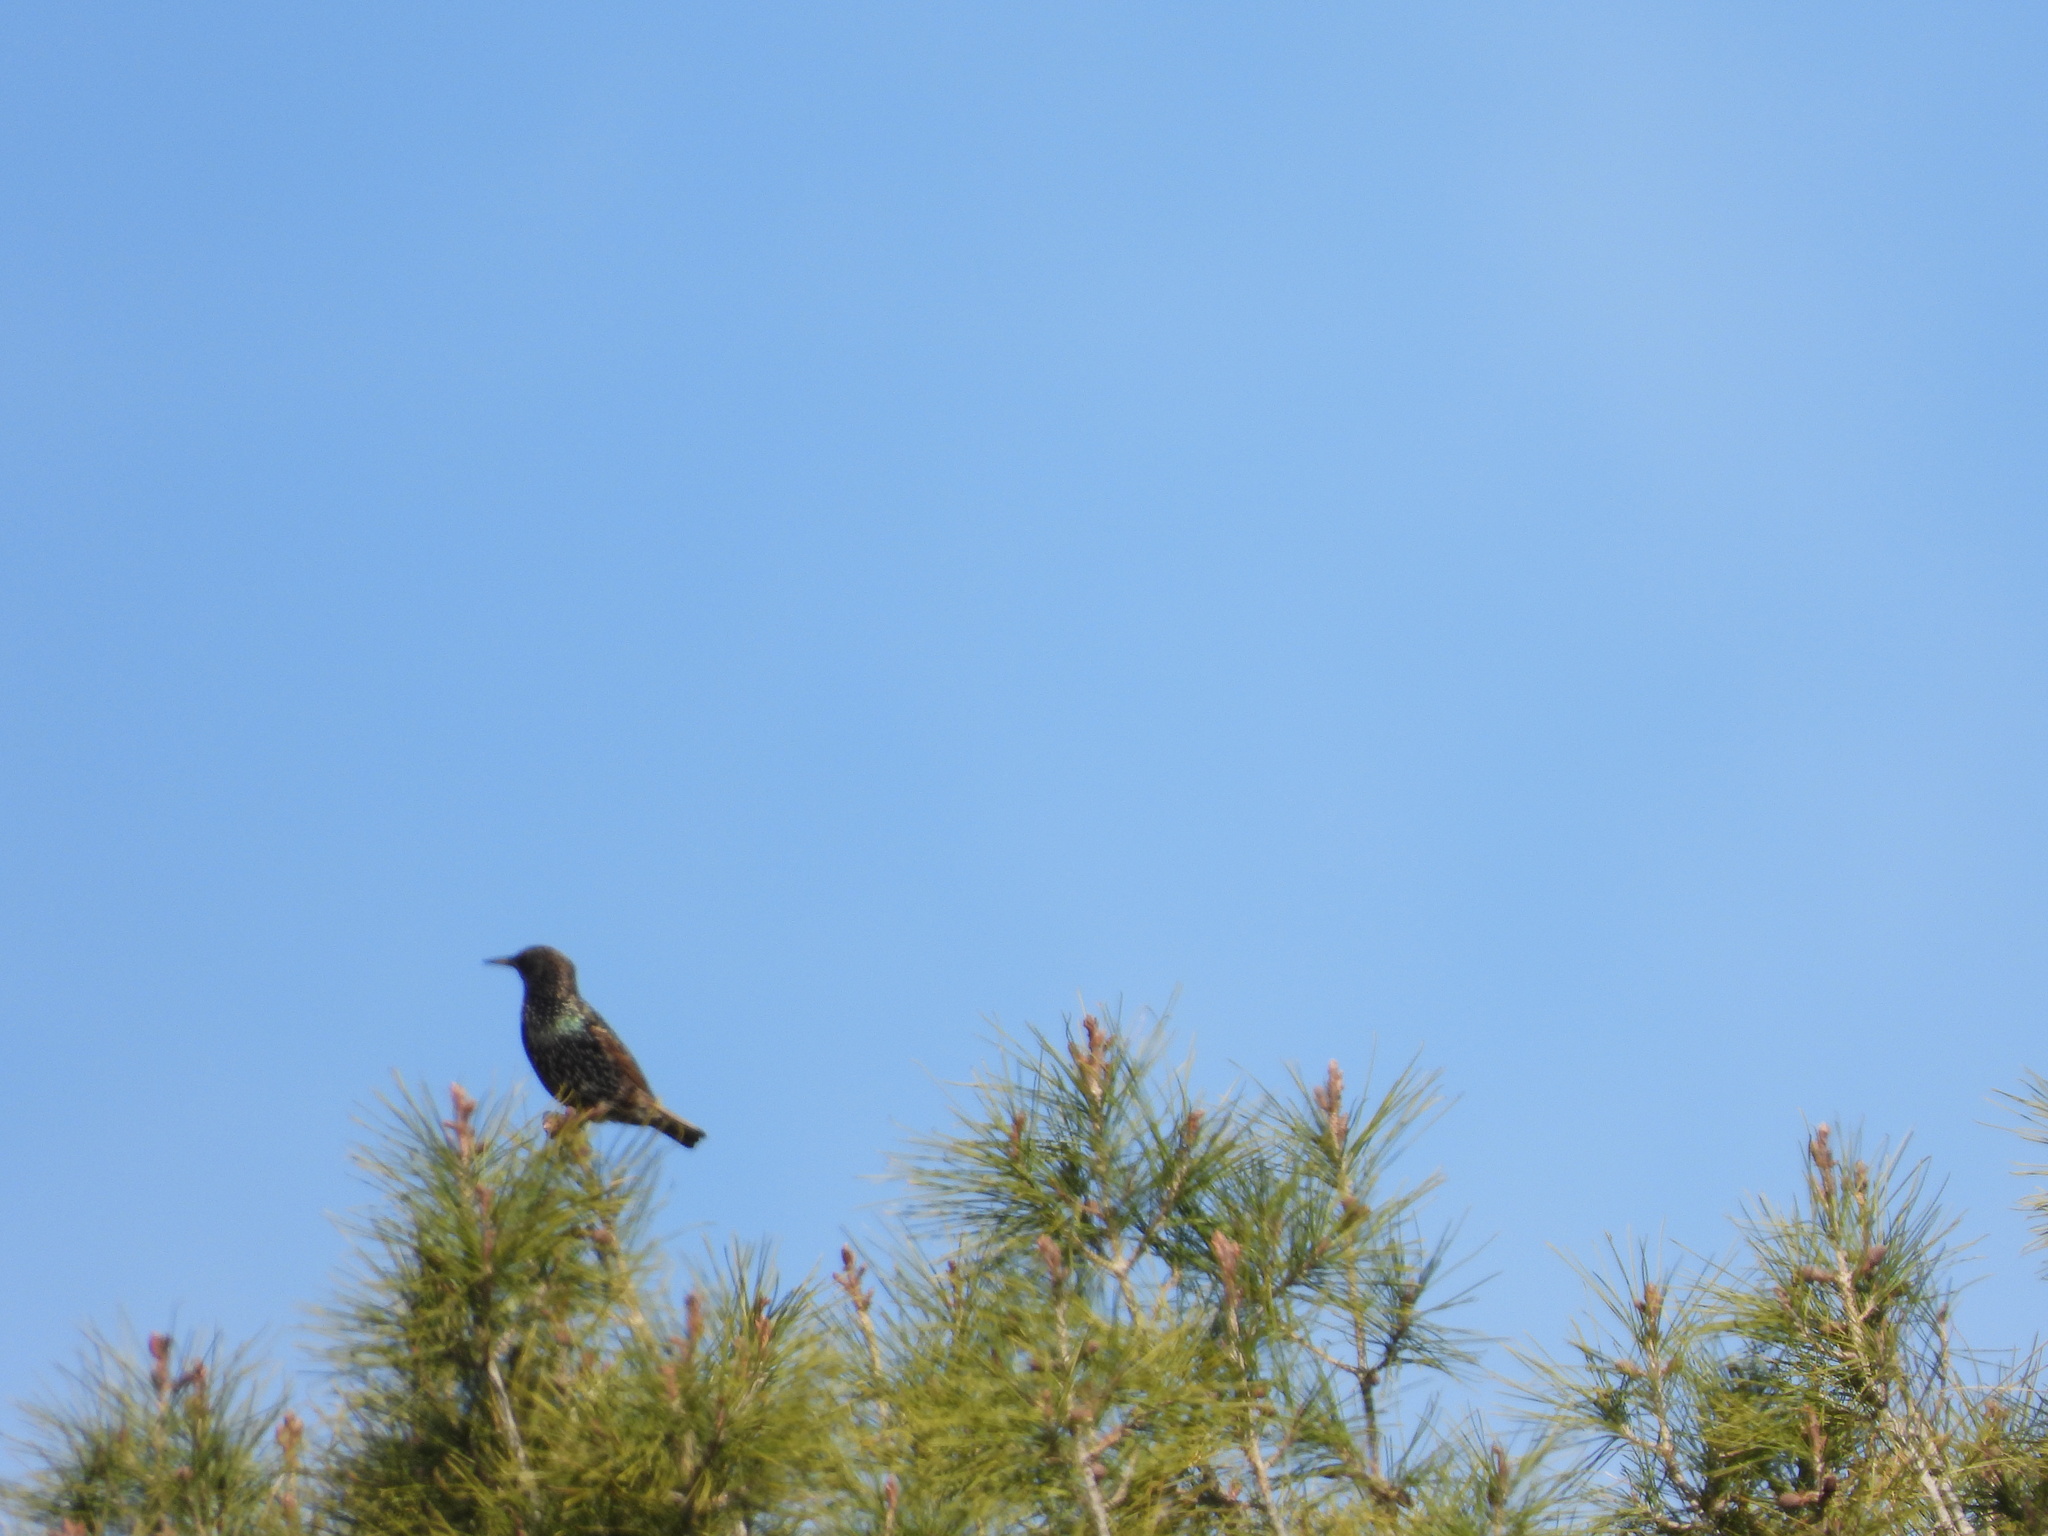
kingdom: Animalia
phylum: Chordata
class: Aves
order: Passeriformes
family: Sturnidae
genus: Sturnus
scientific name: Sturnus vulgaris
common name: Common starling
